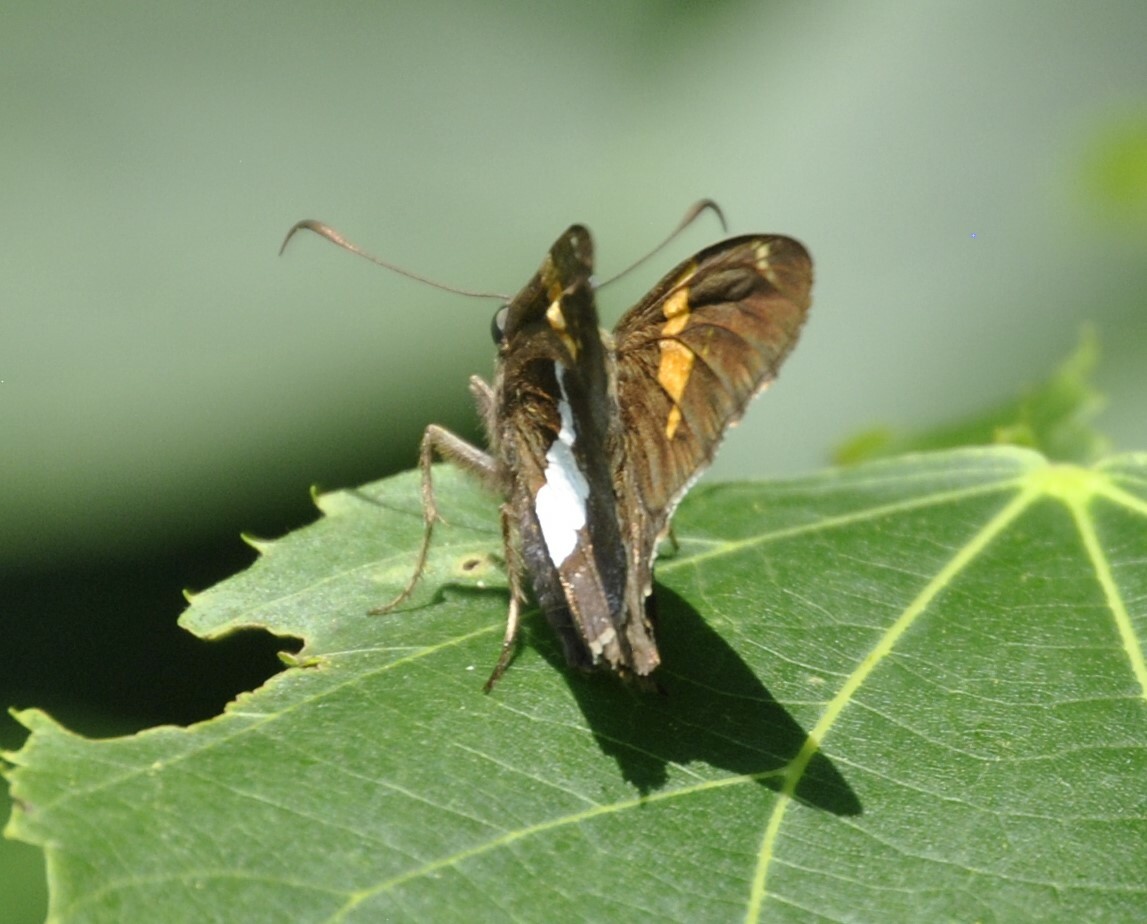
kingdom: Animalia
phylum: Arthropoda
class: Insecta
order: Lepidoptera
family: Hesperiidae
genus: Epargyreus
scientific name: Epargyreus clarus
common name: Silver-spotted skipper
